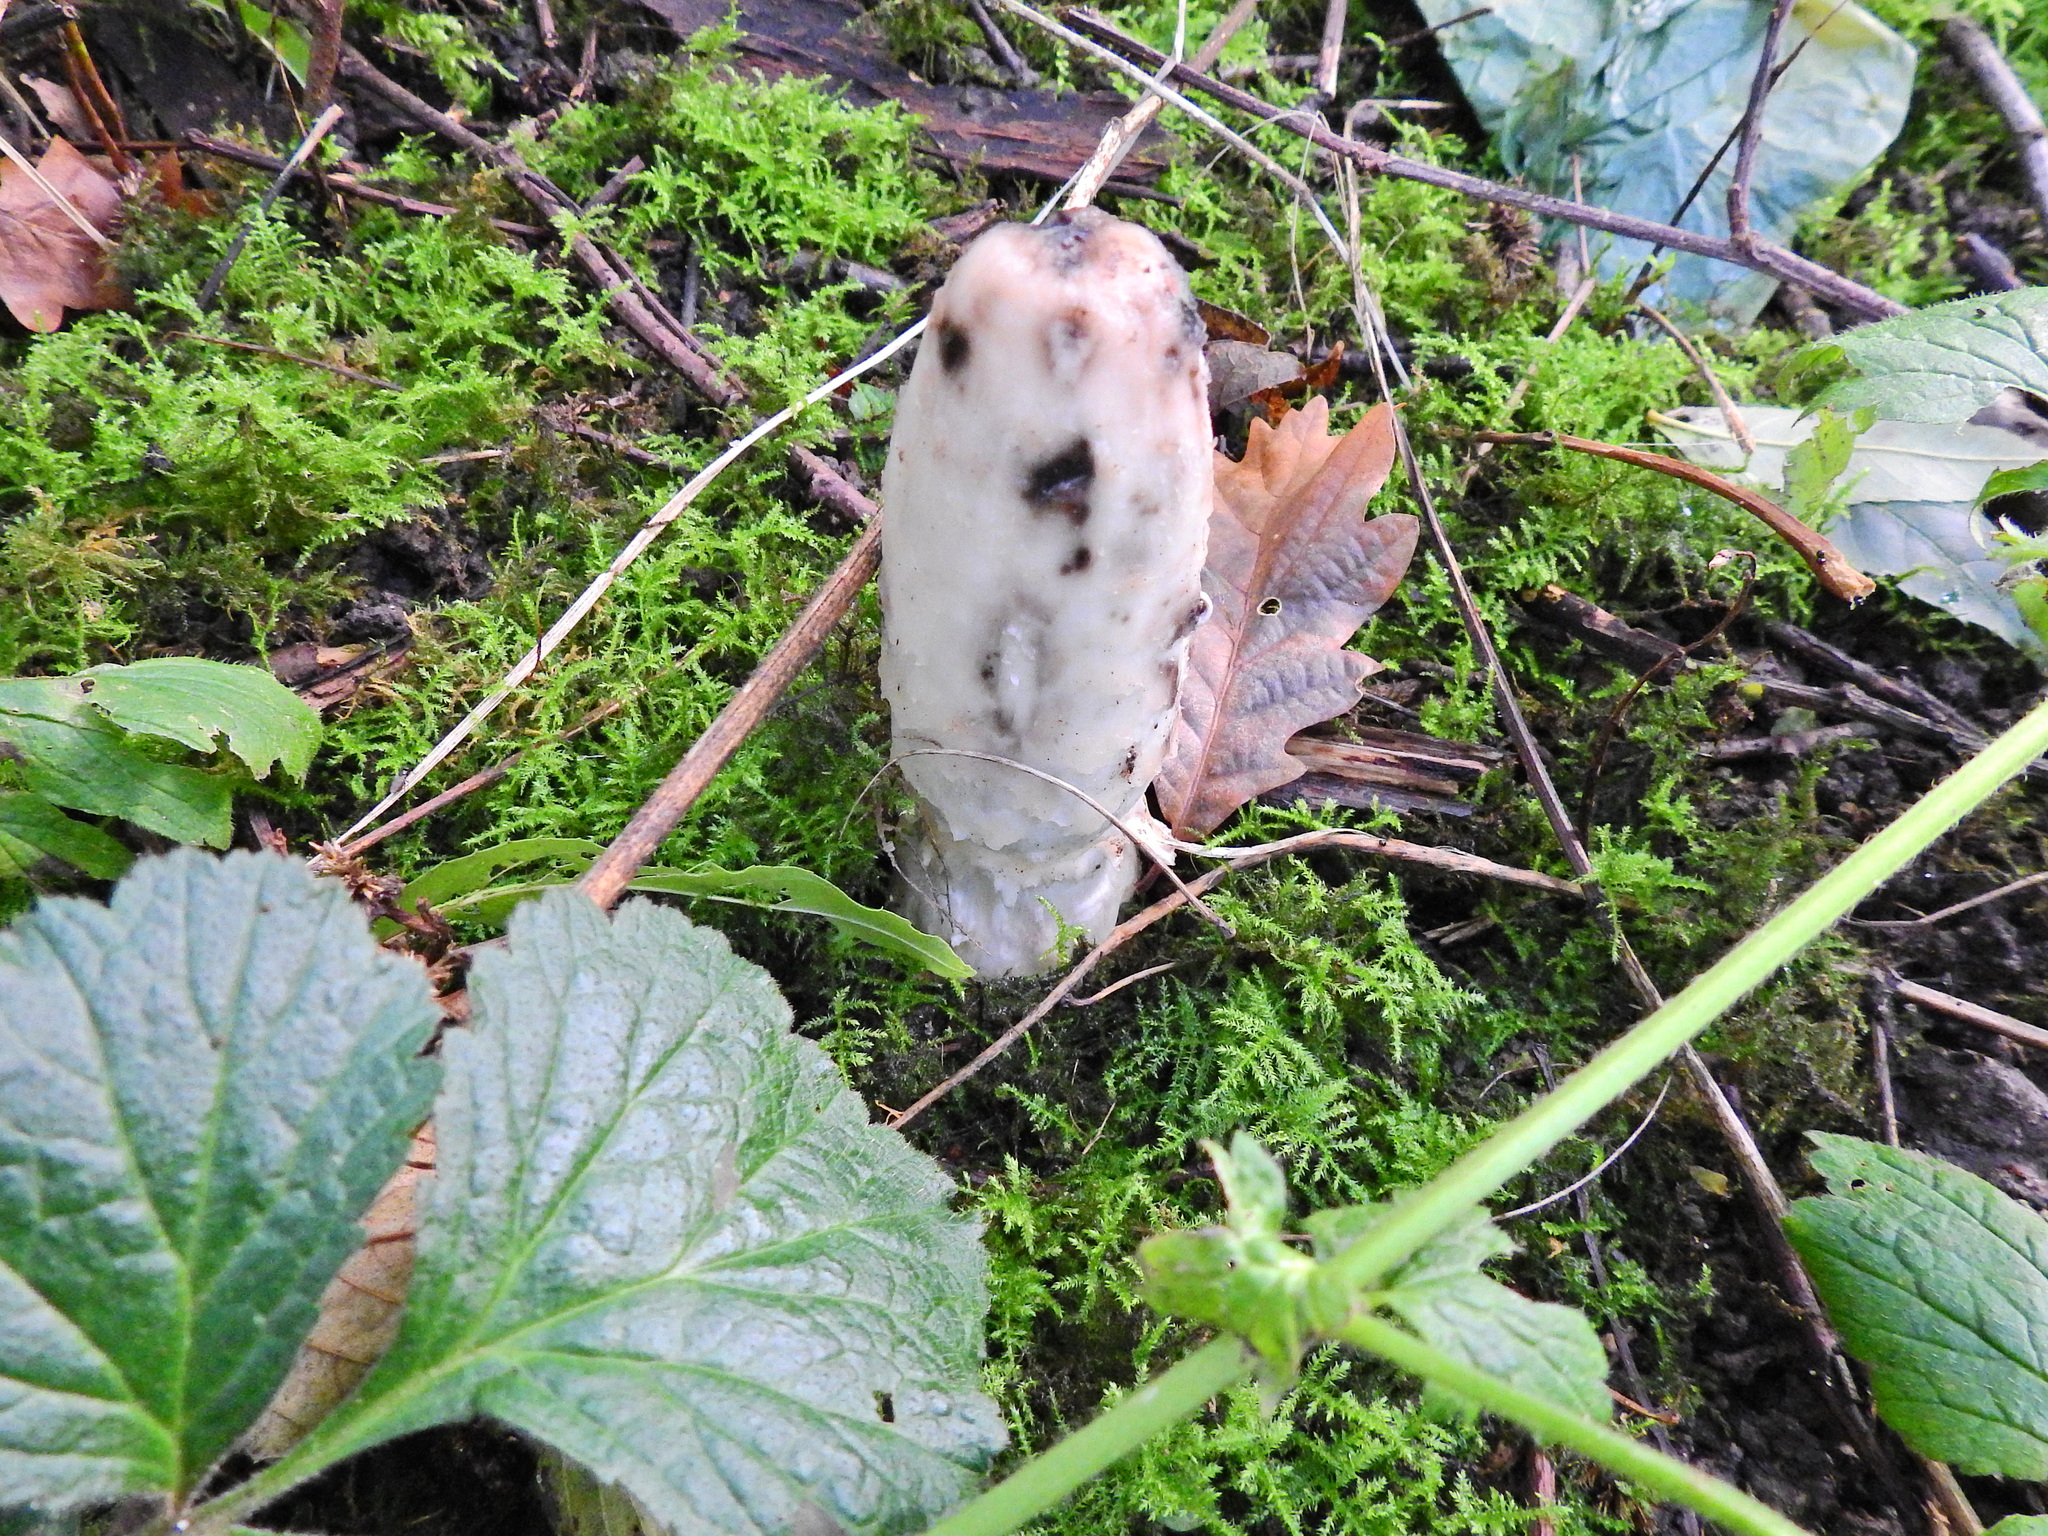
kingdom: Fungi
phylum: Basidiomycota
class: Agaricomycetes
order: Agaricales
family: Agaricaceae
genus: Coprinus
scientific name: Coprinus comatus
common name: Lawyer's wig
